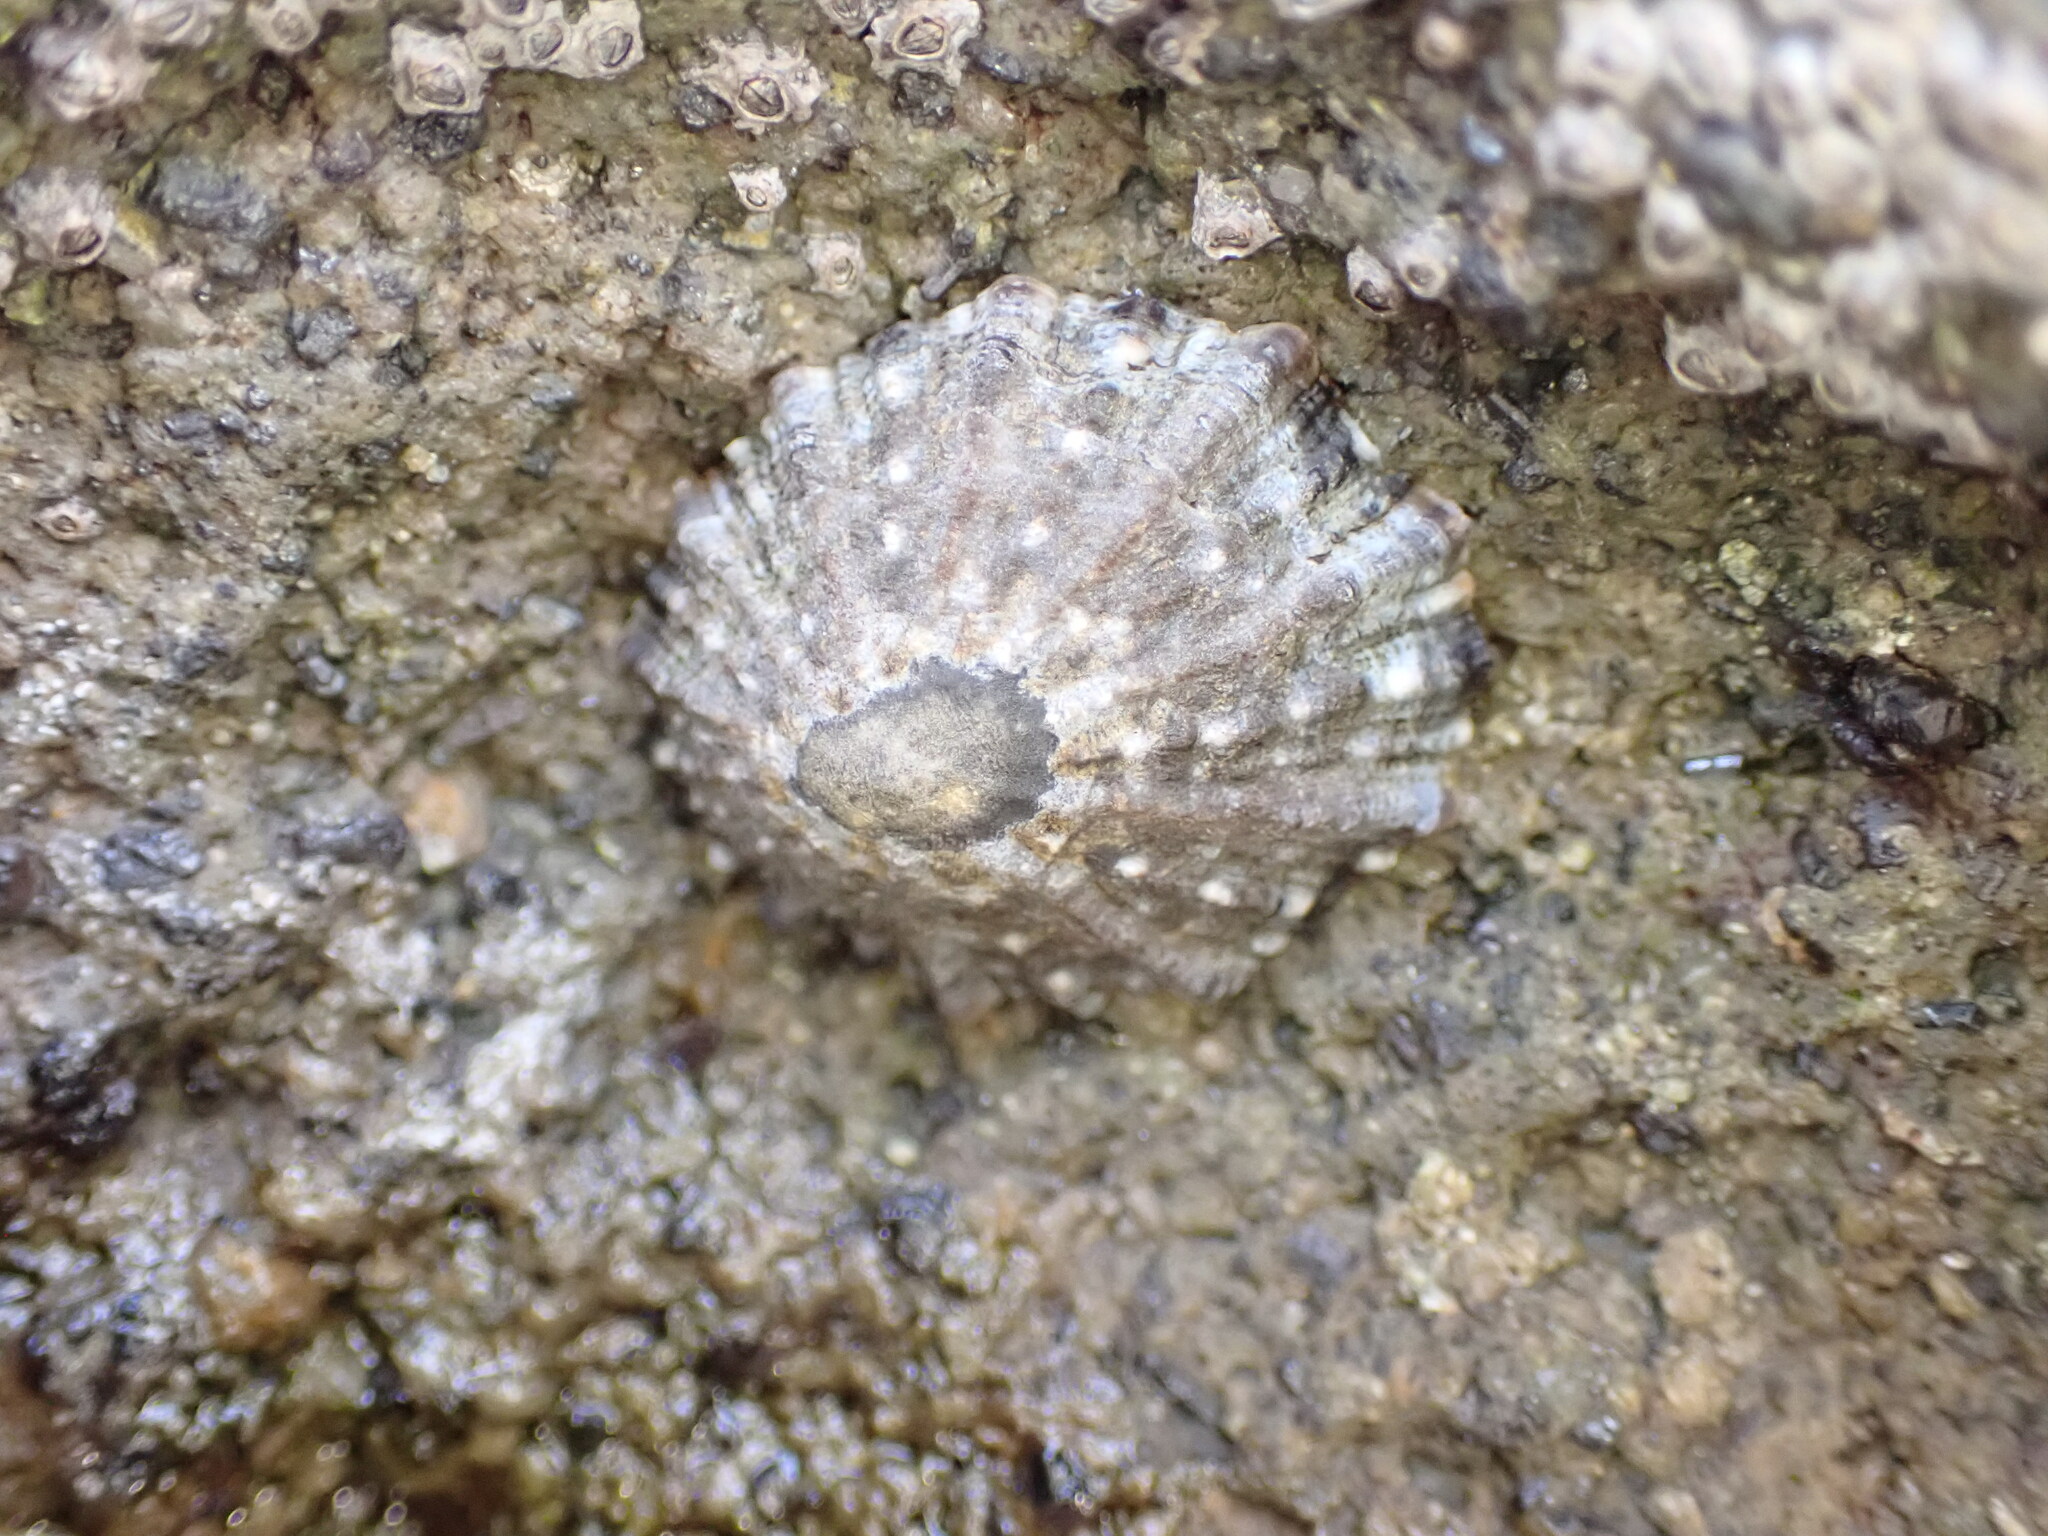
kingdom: Animalia
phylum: Mollusca
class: Gastropoda
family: Nacellidae
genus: Cellana
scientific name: Cellana ornata
